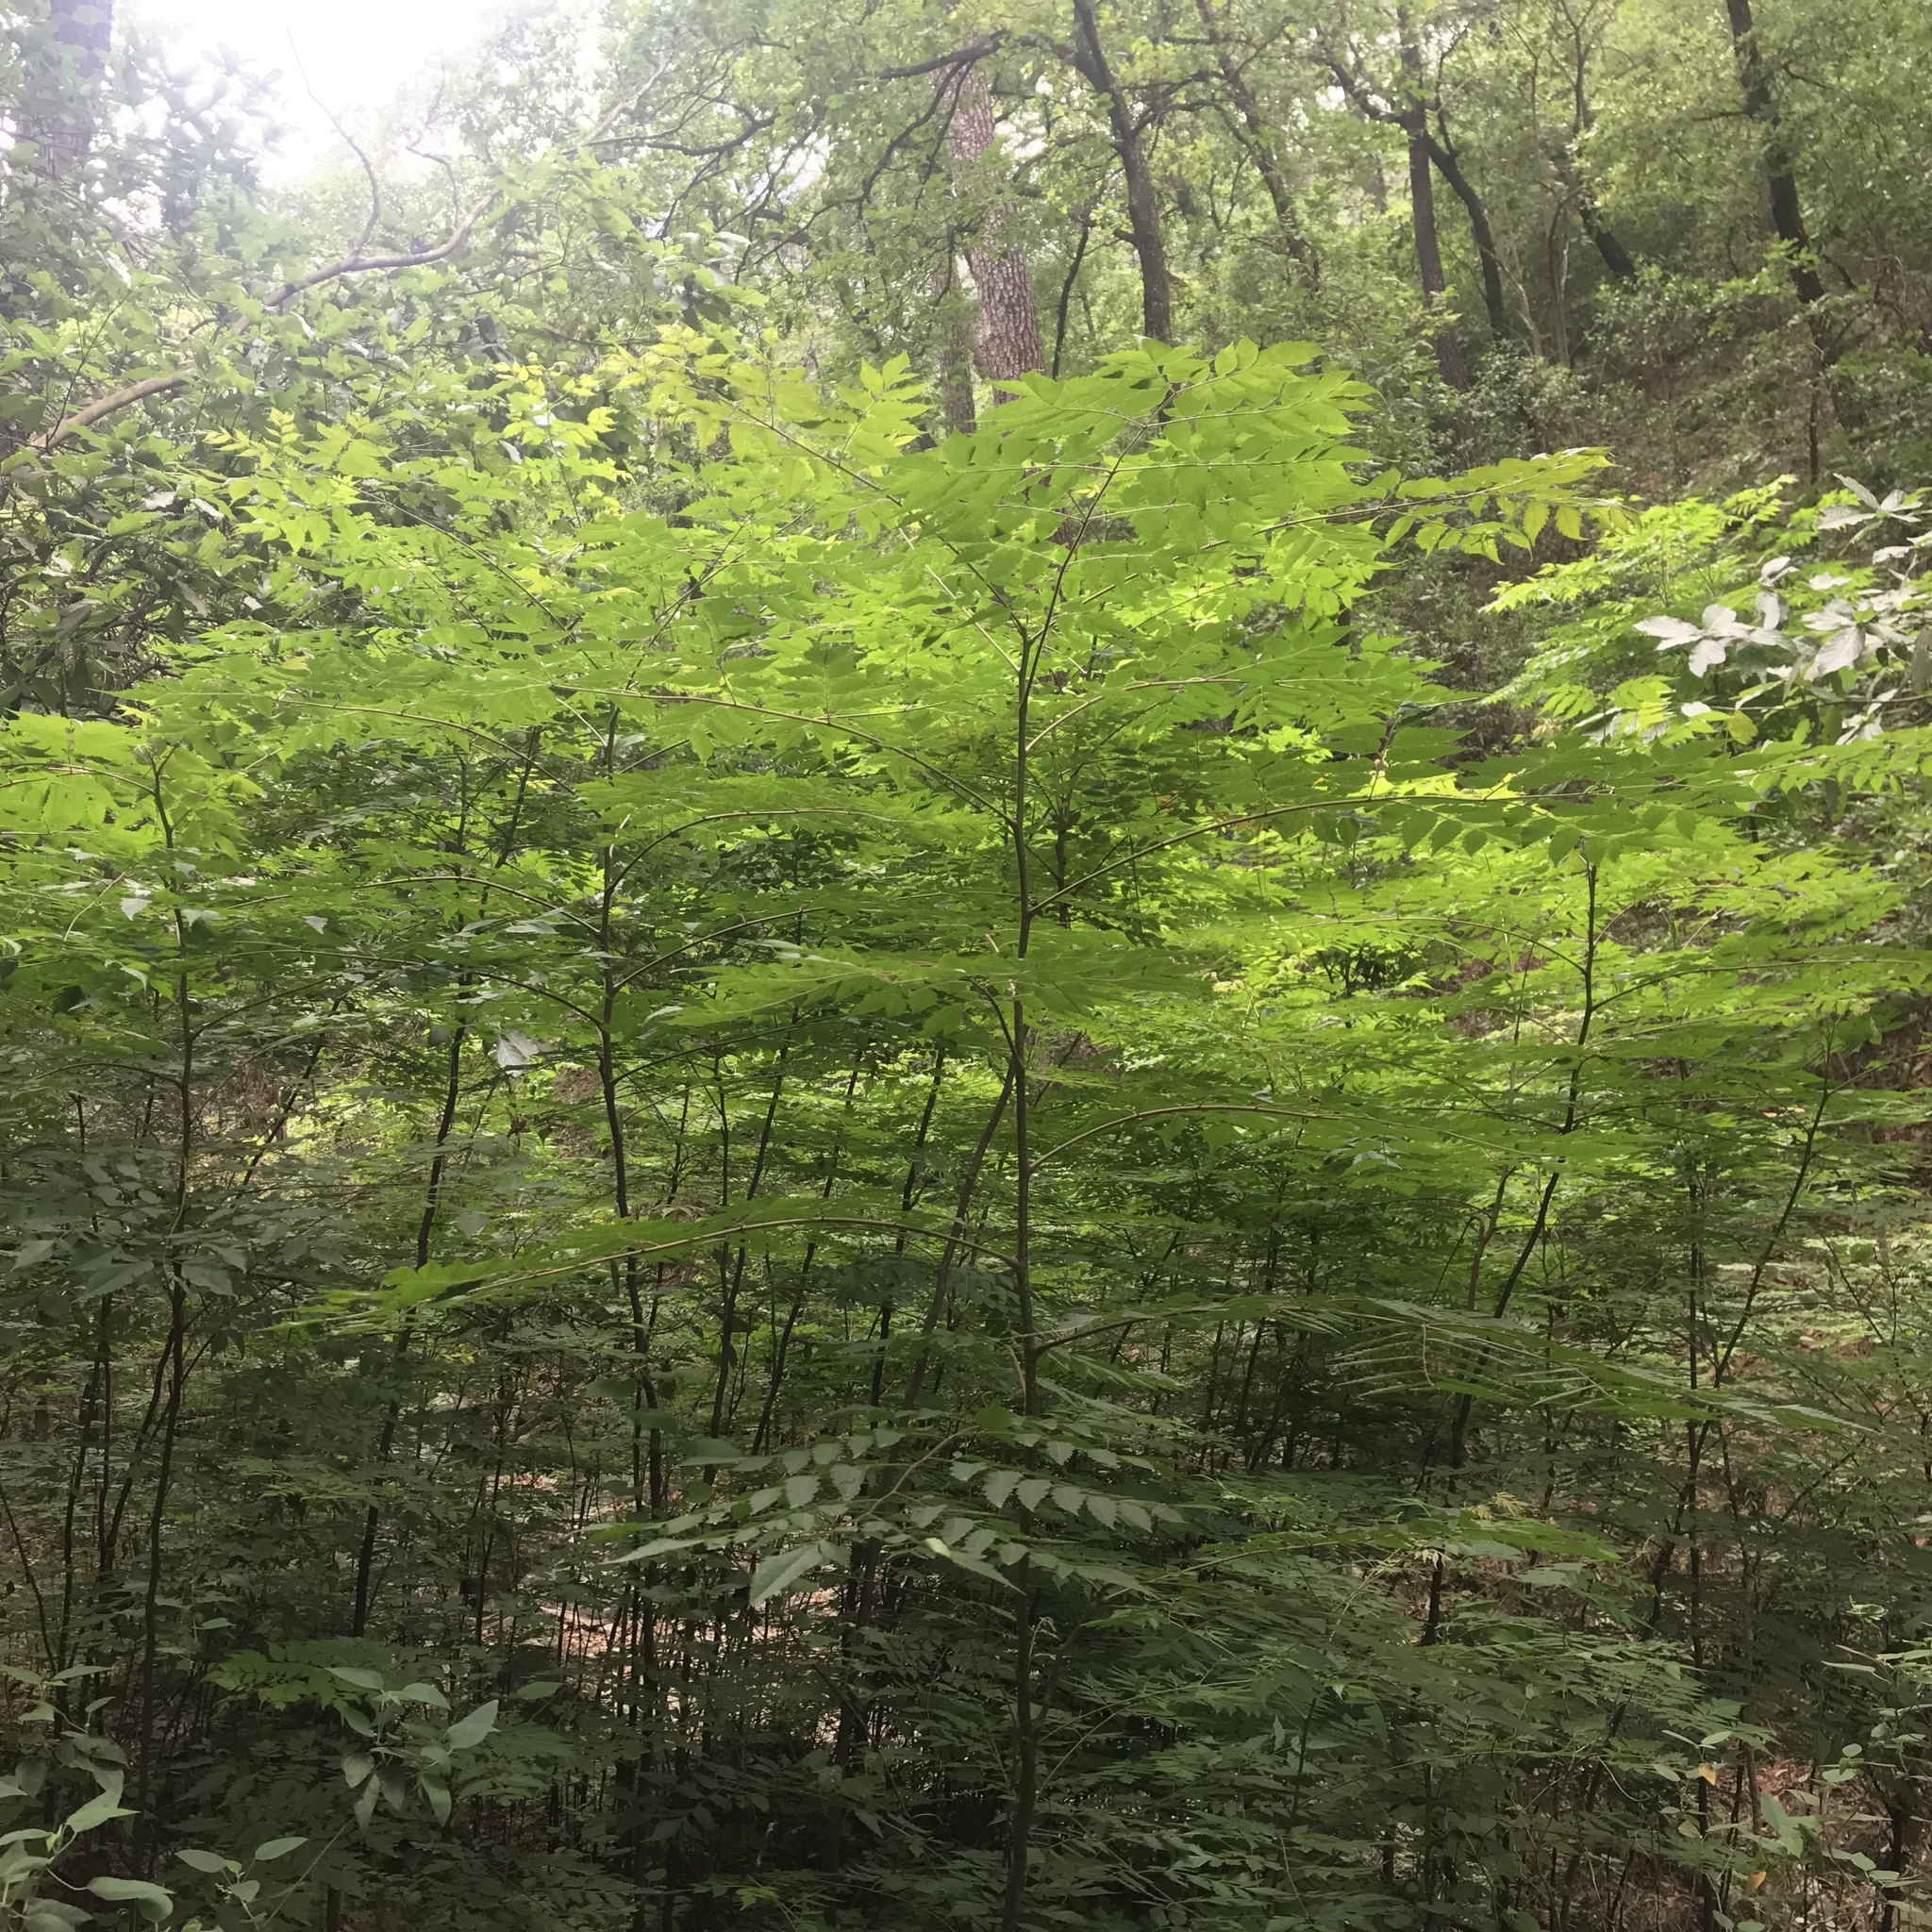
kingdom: Plantae
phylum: Tracheophyta
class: Magnoliopsida
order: Sapindales
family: Meliaceae
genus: Melia
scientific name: Melia azedarach
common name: Chinaberrytree
